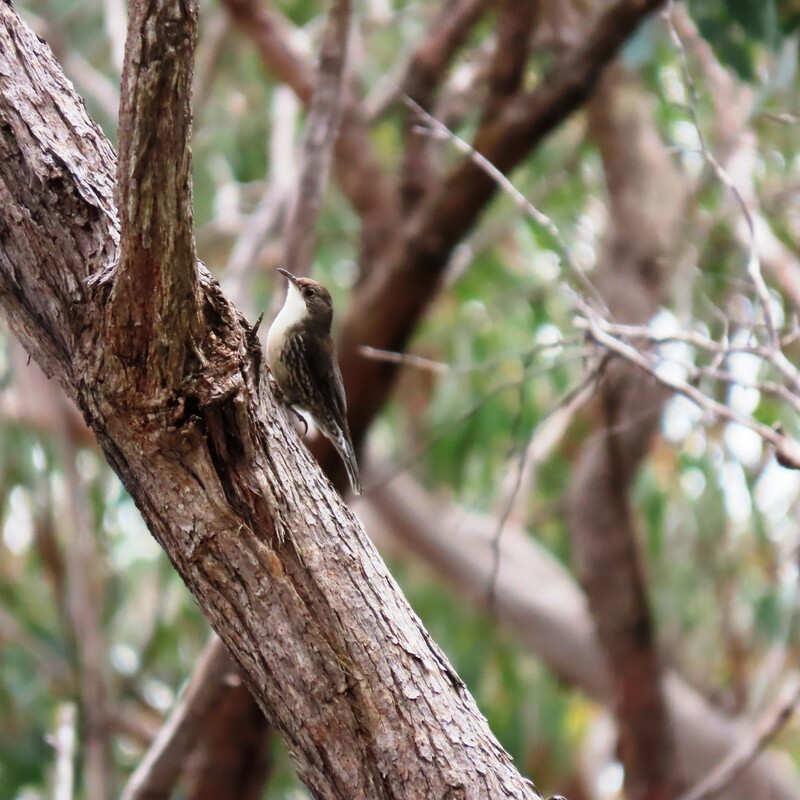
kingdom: Animalia
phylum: Chordata
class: Aves
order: Passeriformes
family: Climacteridae
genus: Cormobates
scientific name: Cormobates leucophaea
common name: White-throated treecreeper
